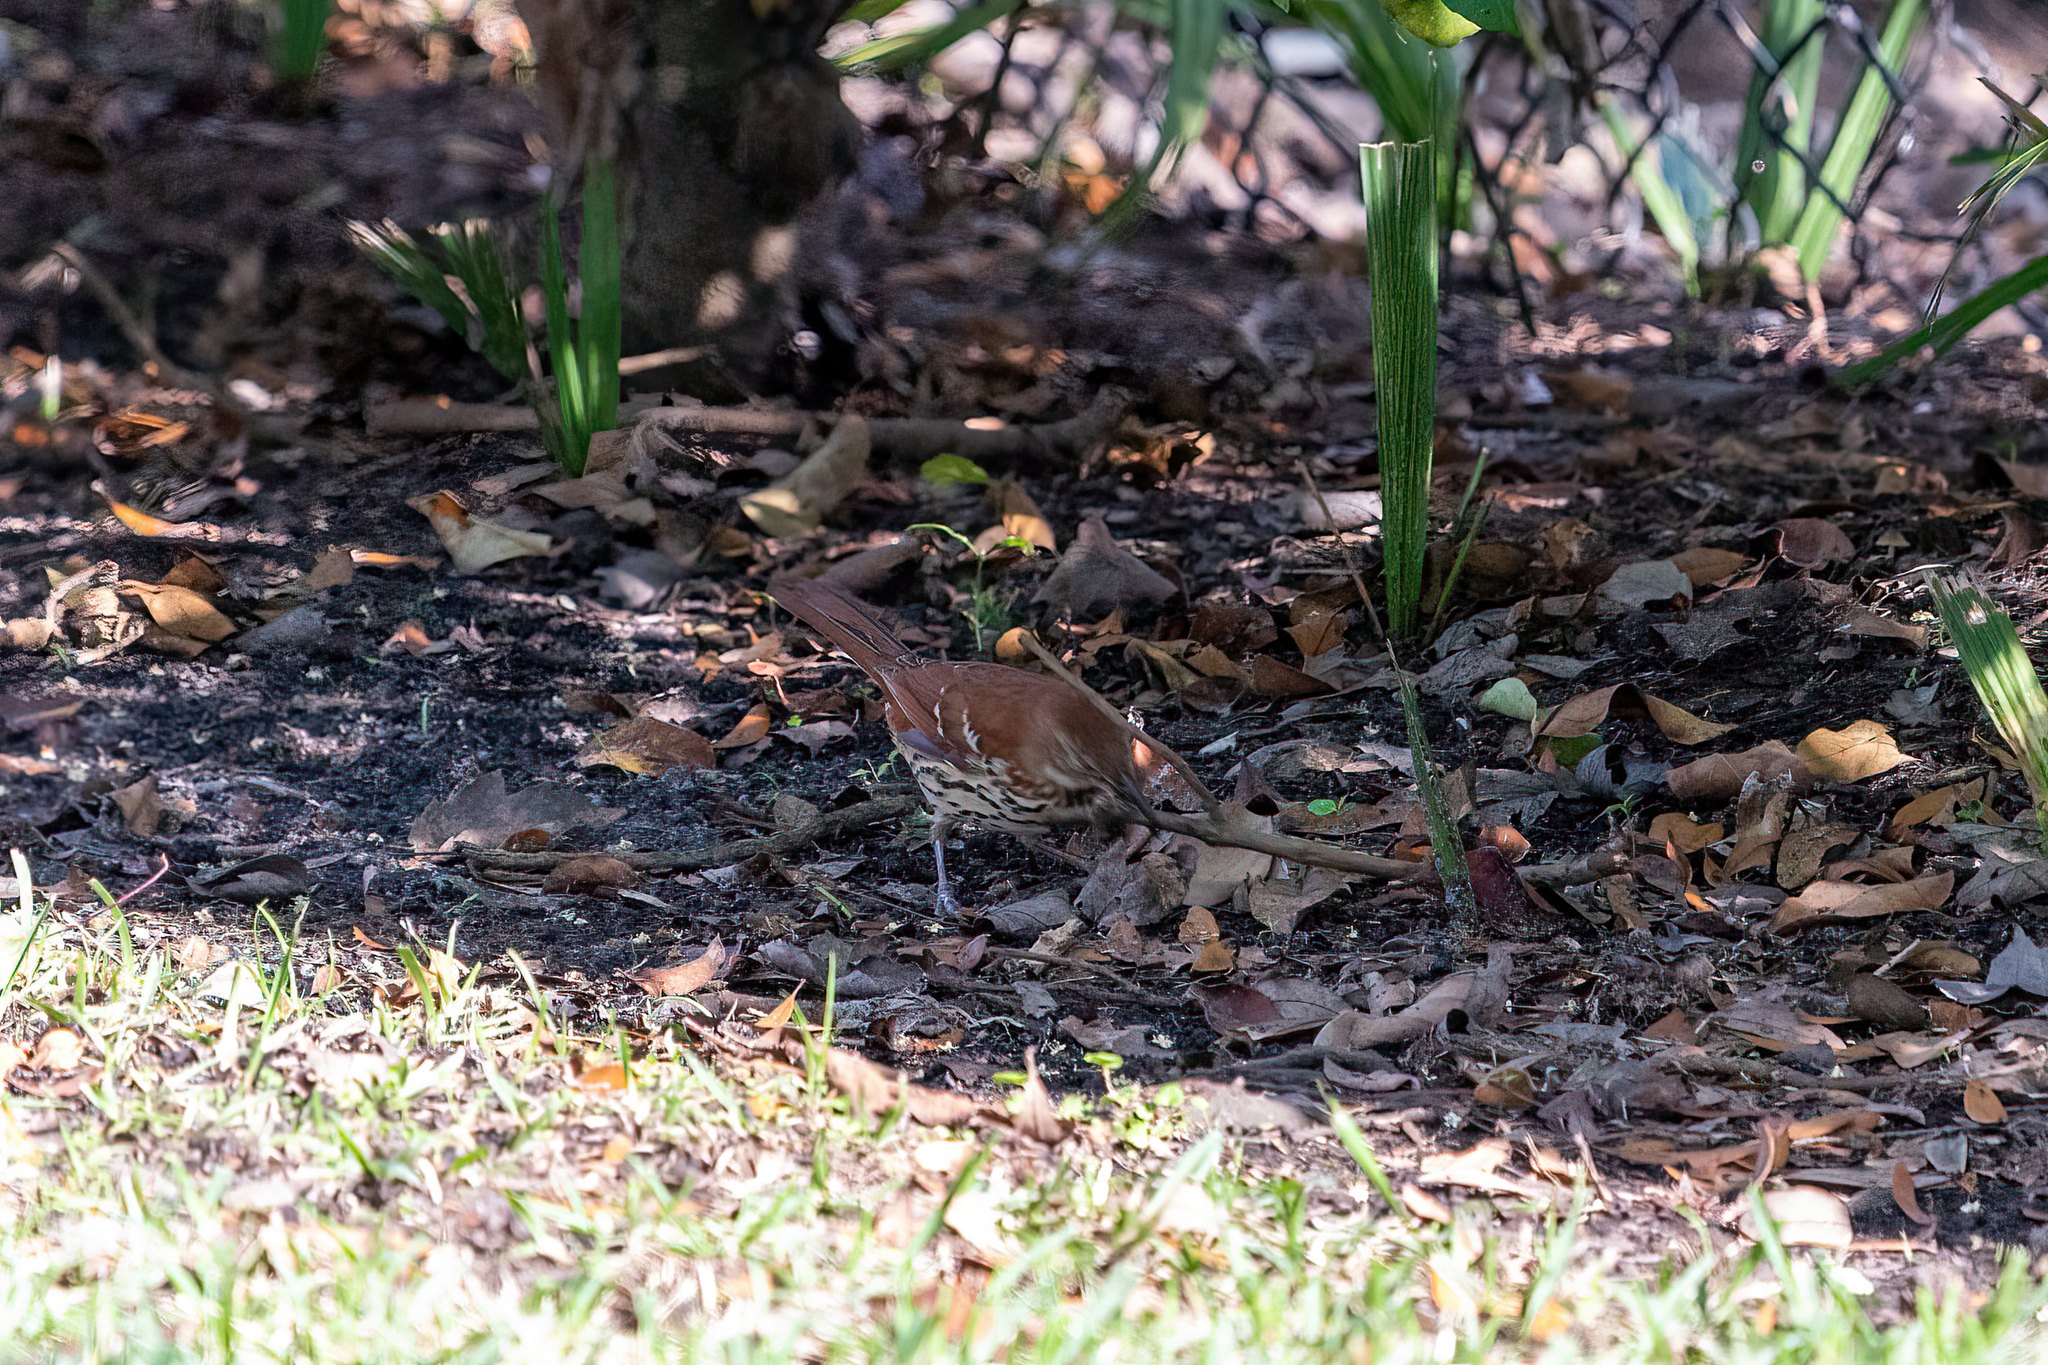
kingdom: Animalia
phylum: Chordata
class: Aves
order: Passeriformes
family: Mimidae
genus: Toxostoma
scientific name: Toxostoma rufum
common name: Brown thrasher
